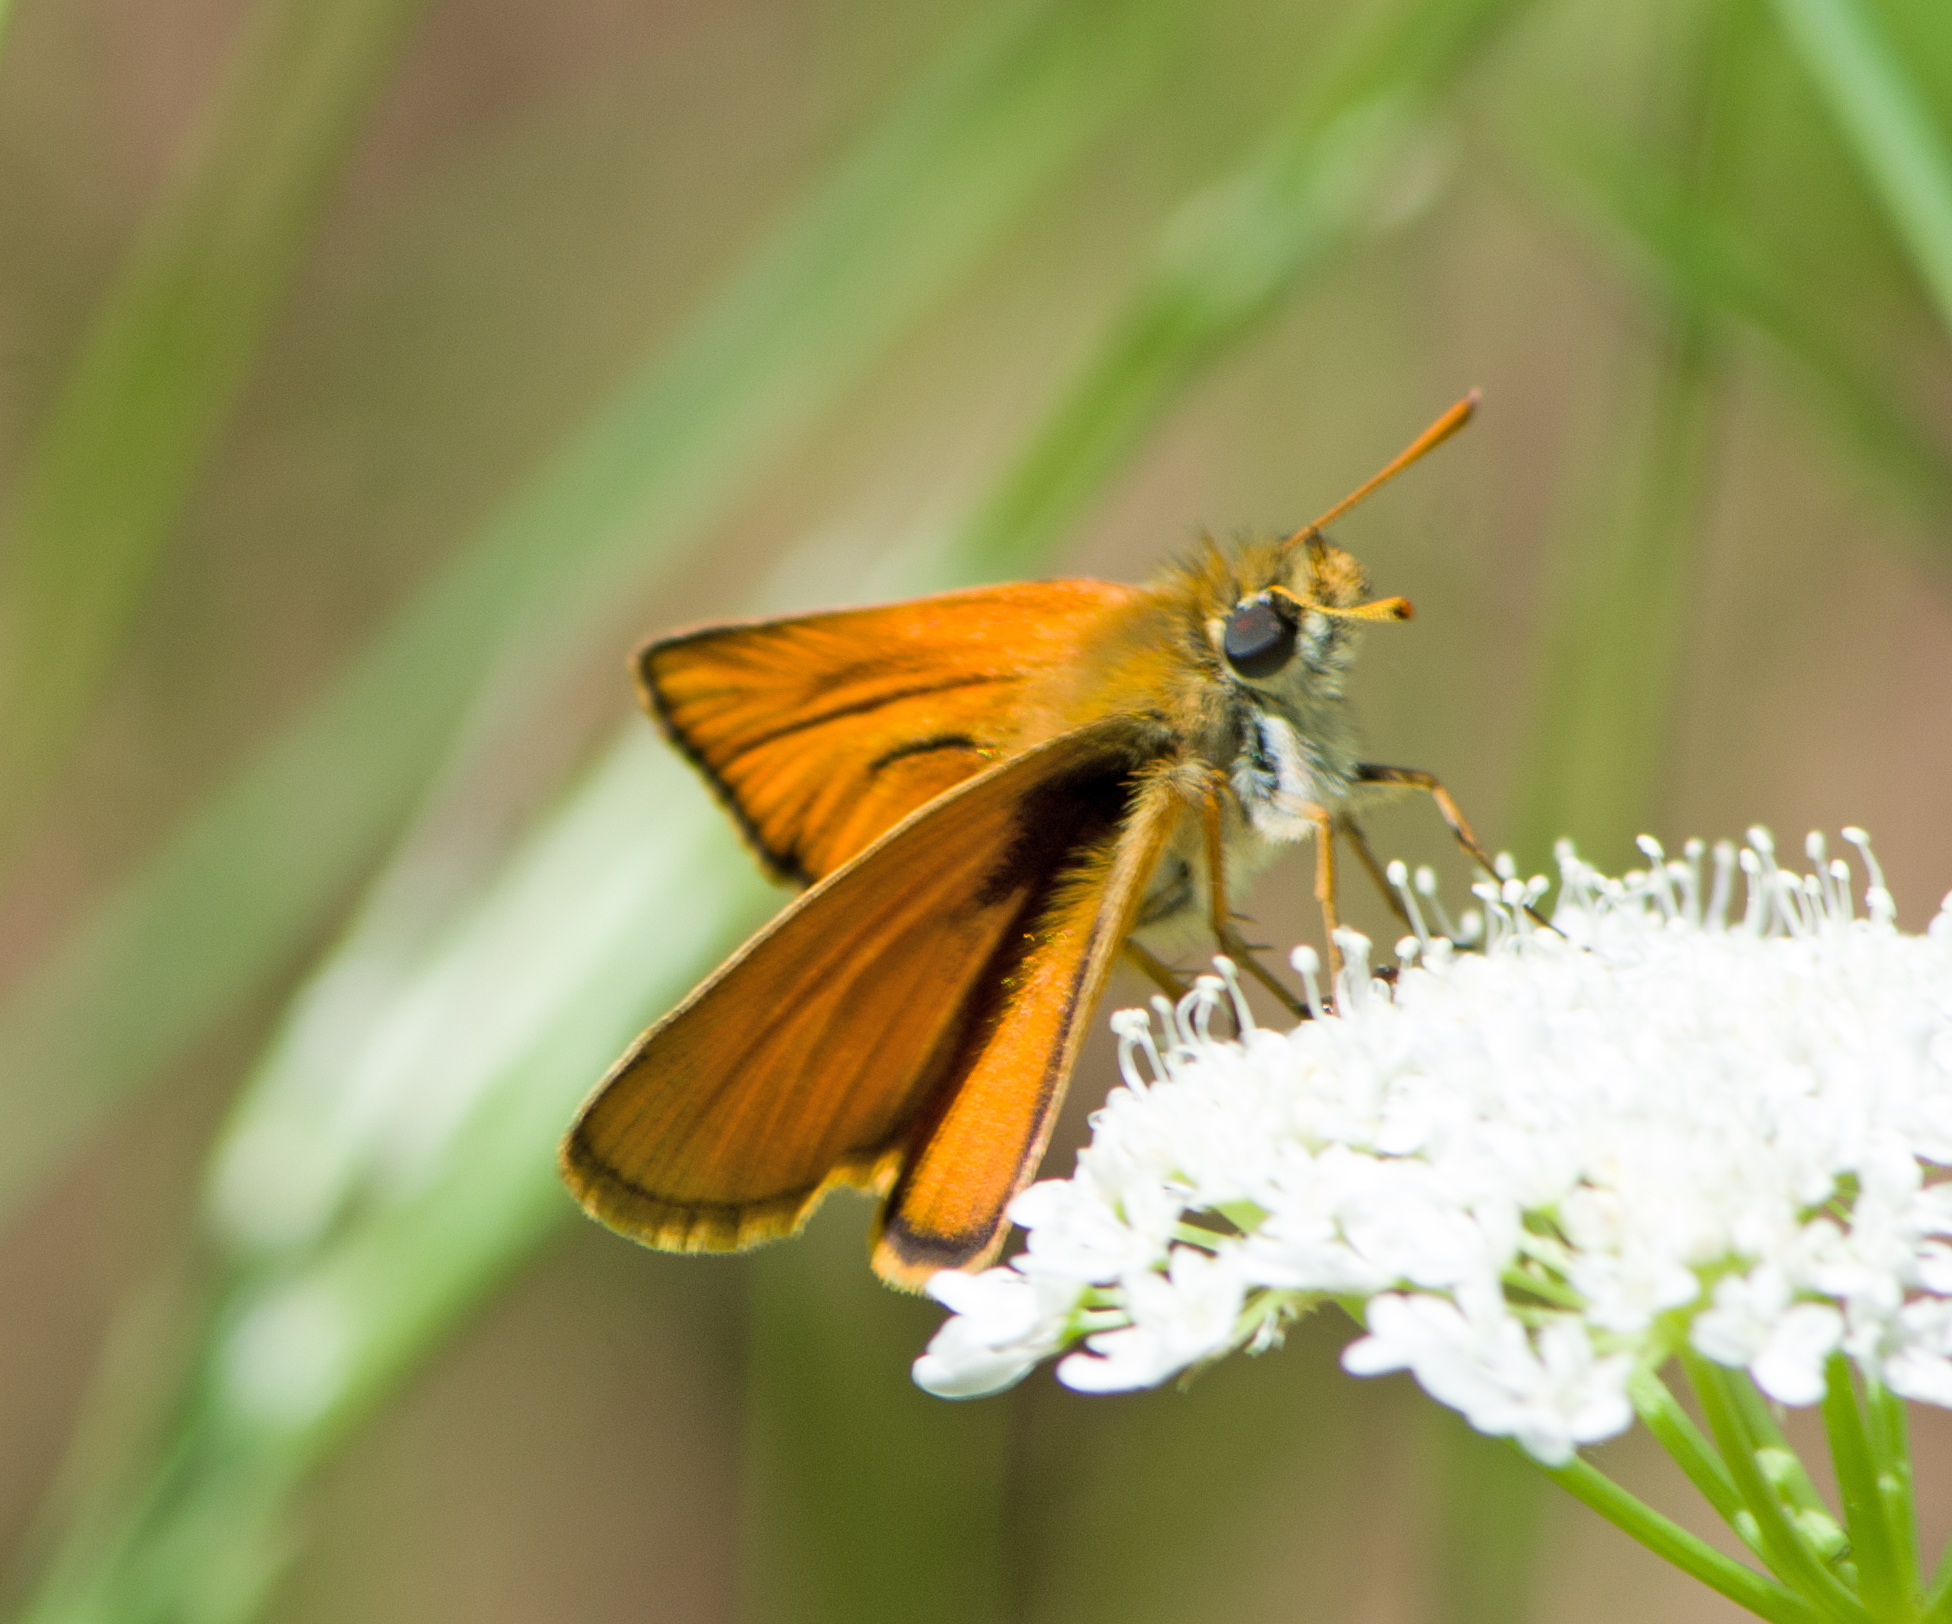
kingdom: Animalia
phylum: Arthropoda
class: Insecta
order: Lepidoptera
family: Hesperiidae
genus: Thymelicus
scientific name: Thymelicus sylvestris
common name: Small skipper
